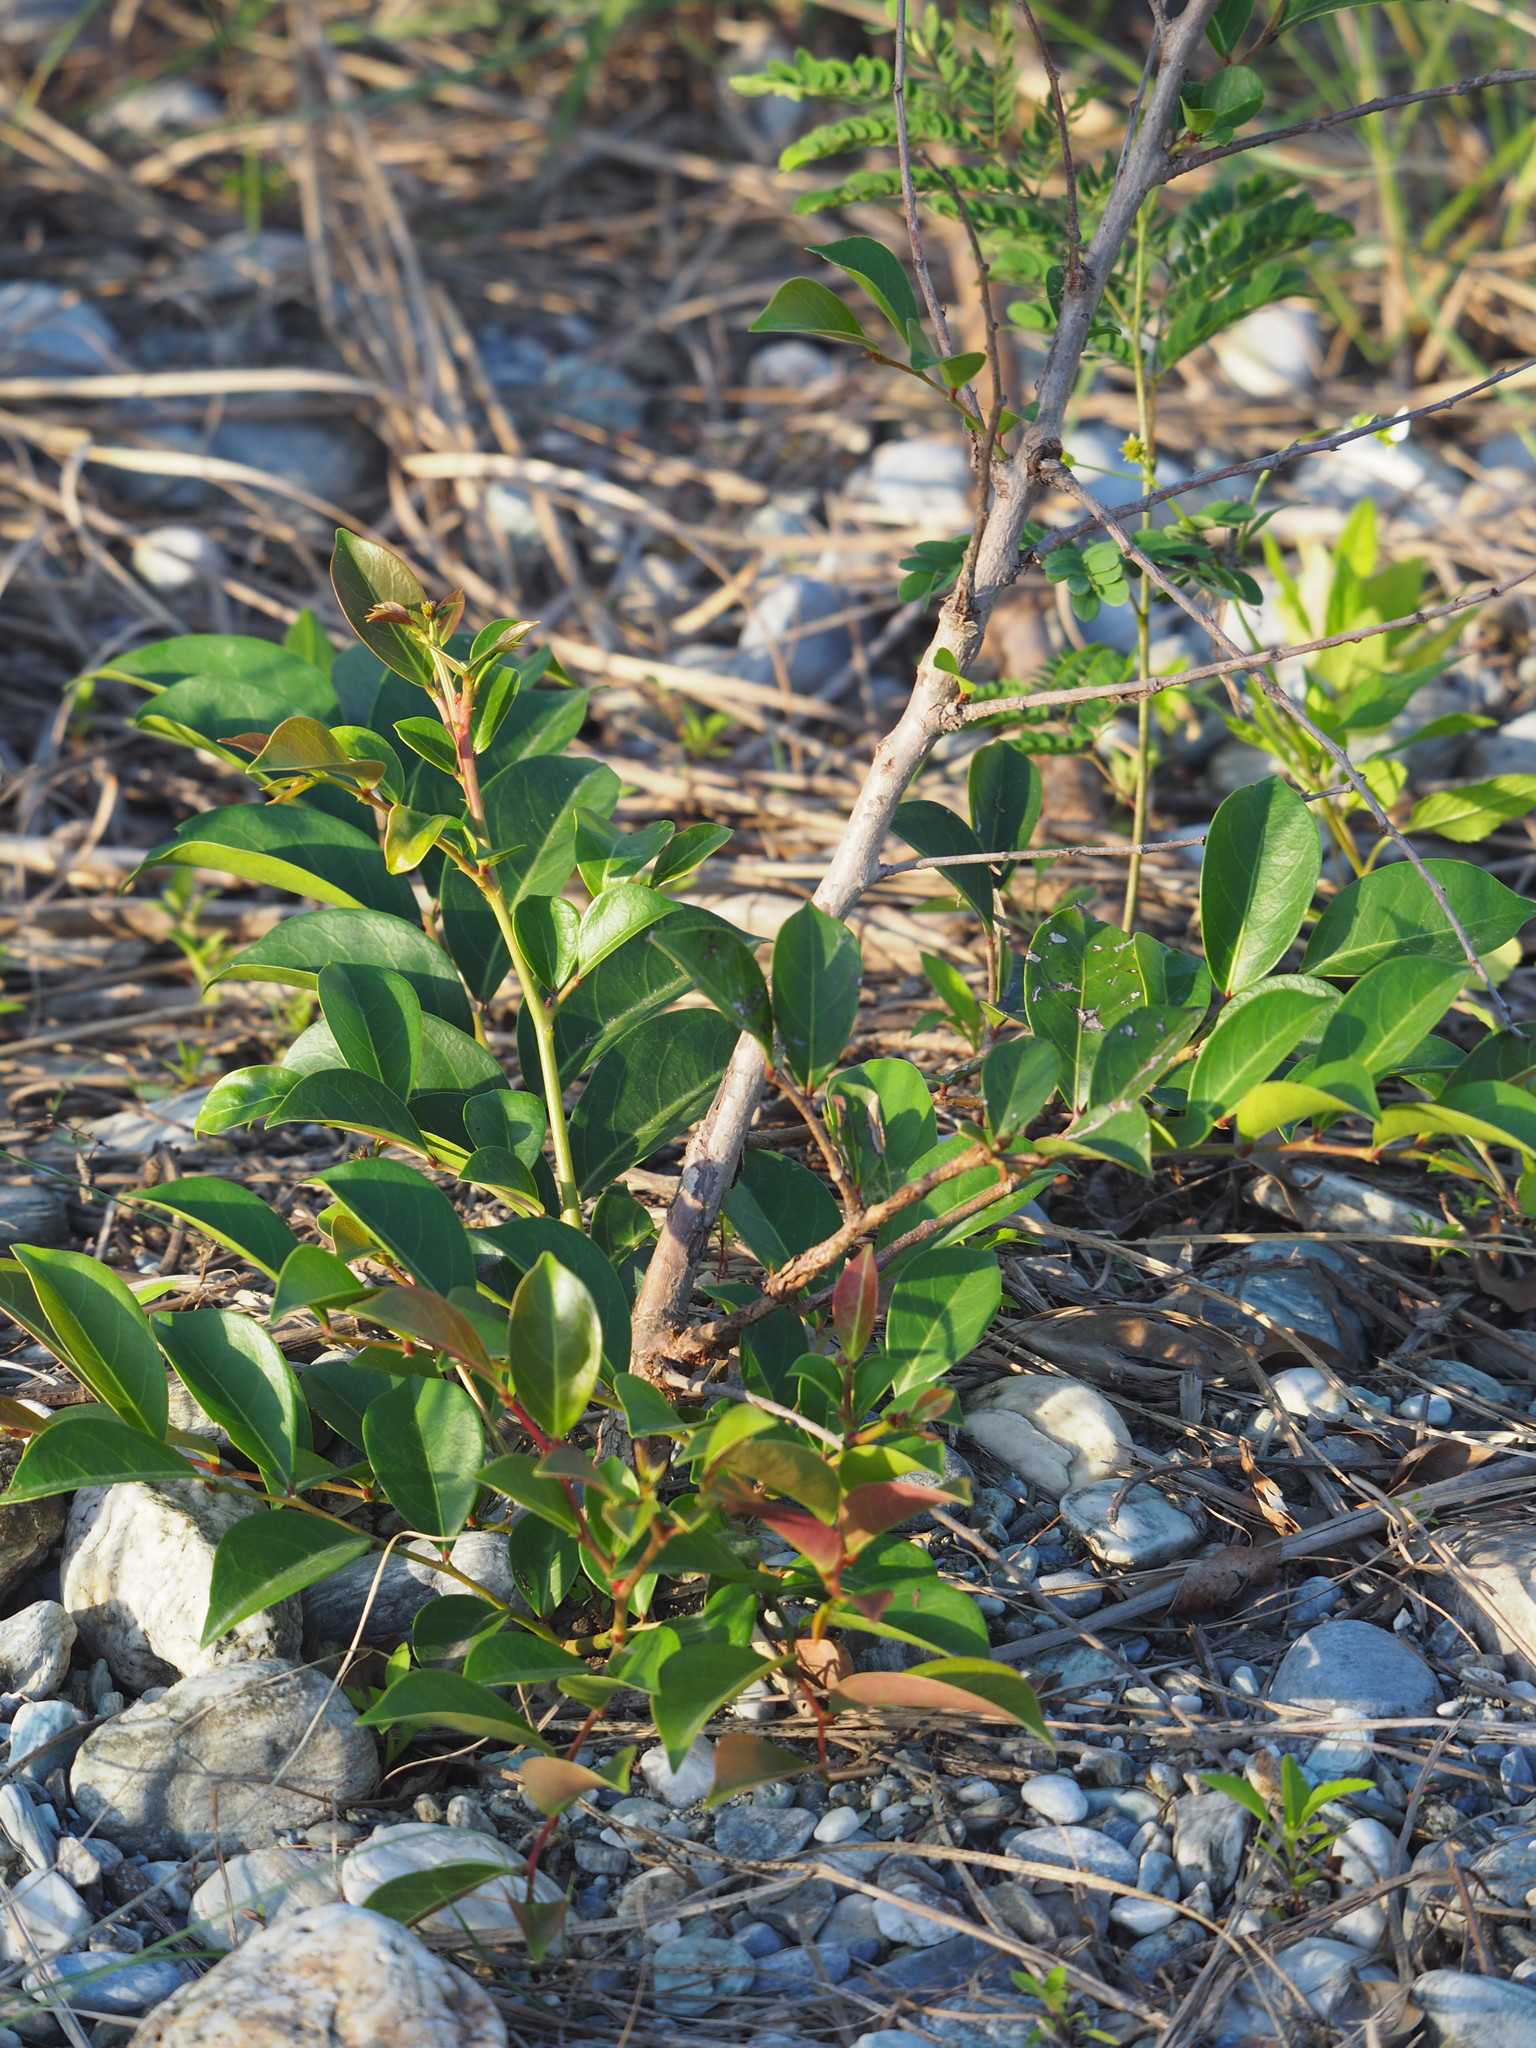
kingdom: Plantae
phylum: Tracheophyta
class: Magnoliopsida
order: Malpighiales
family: Phyllanthaceae
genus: Glochidion
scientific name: Glochidion rubrum
